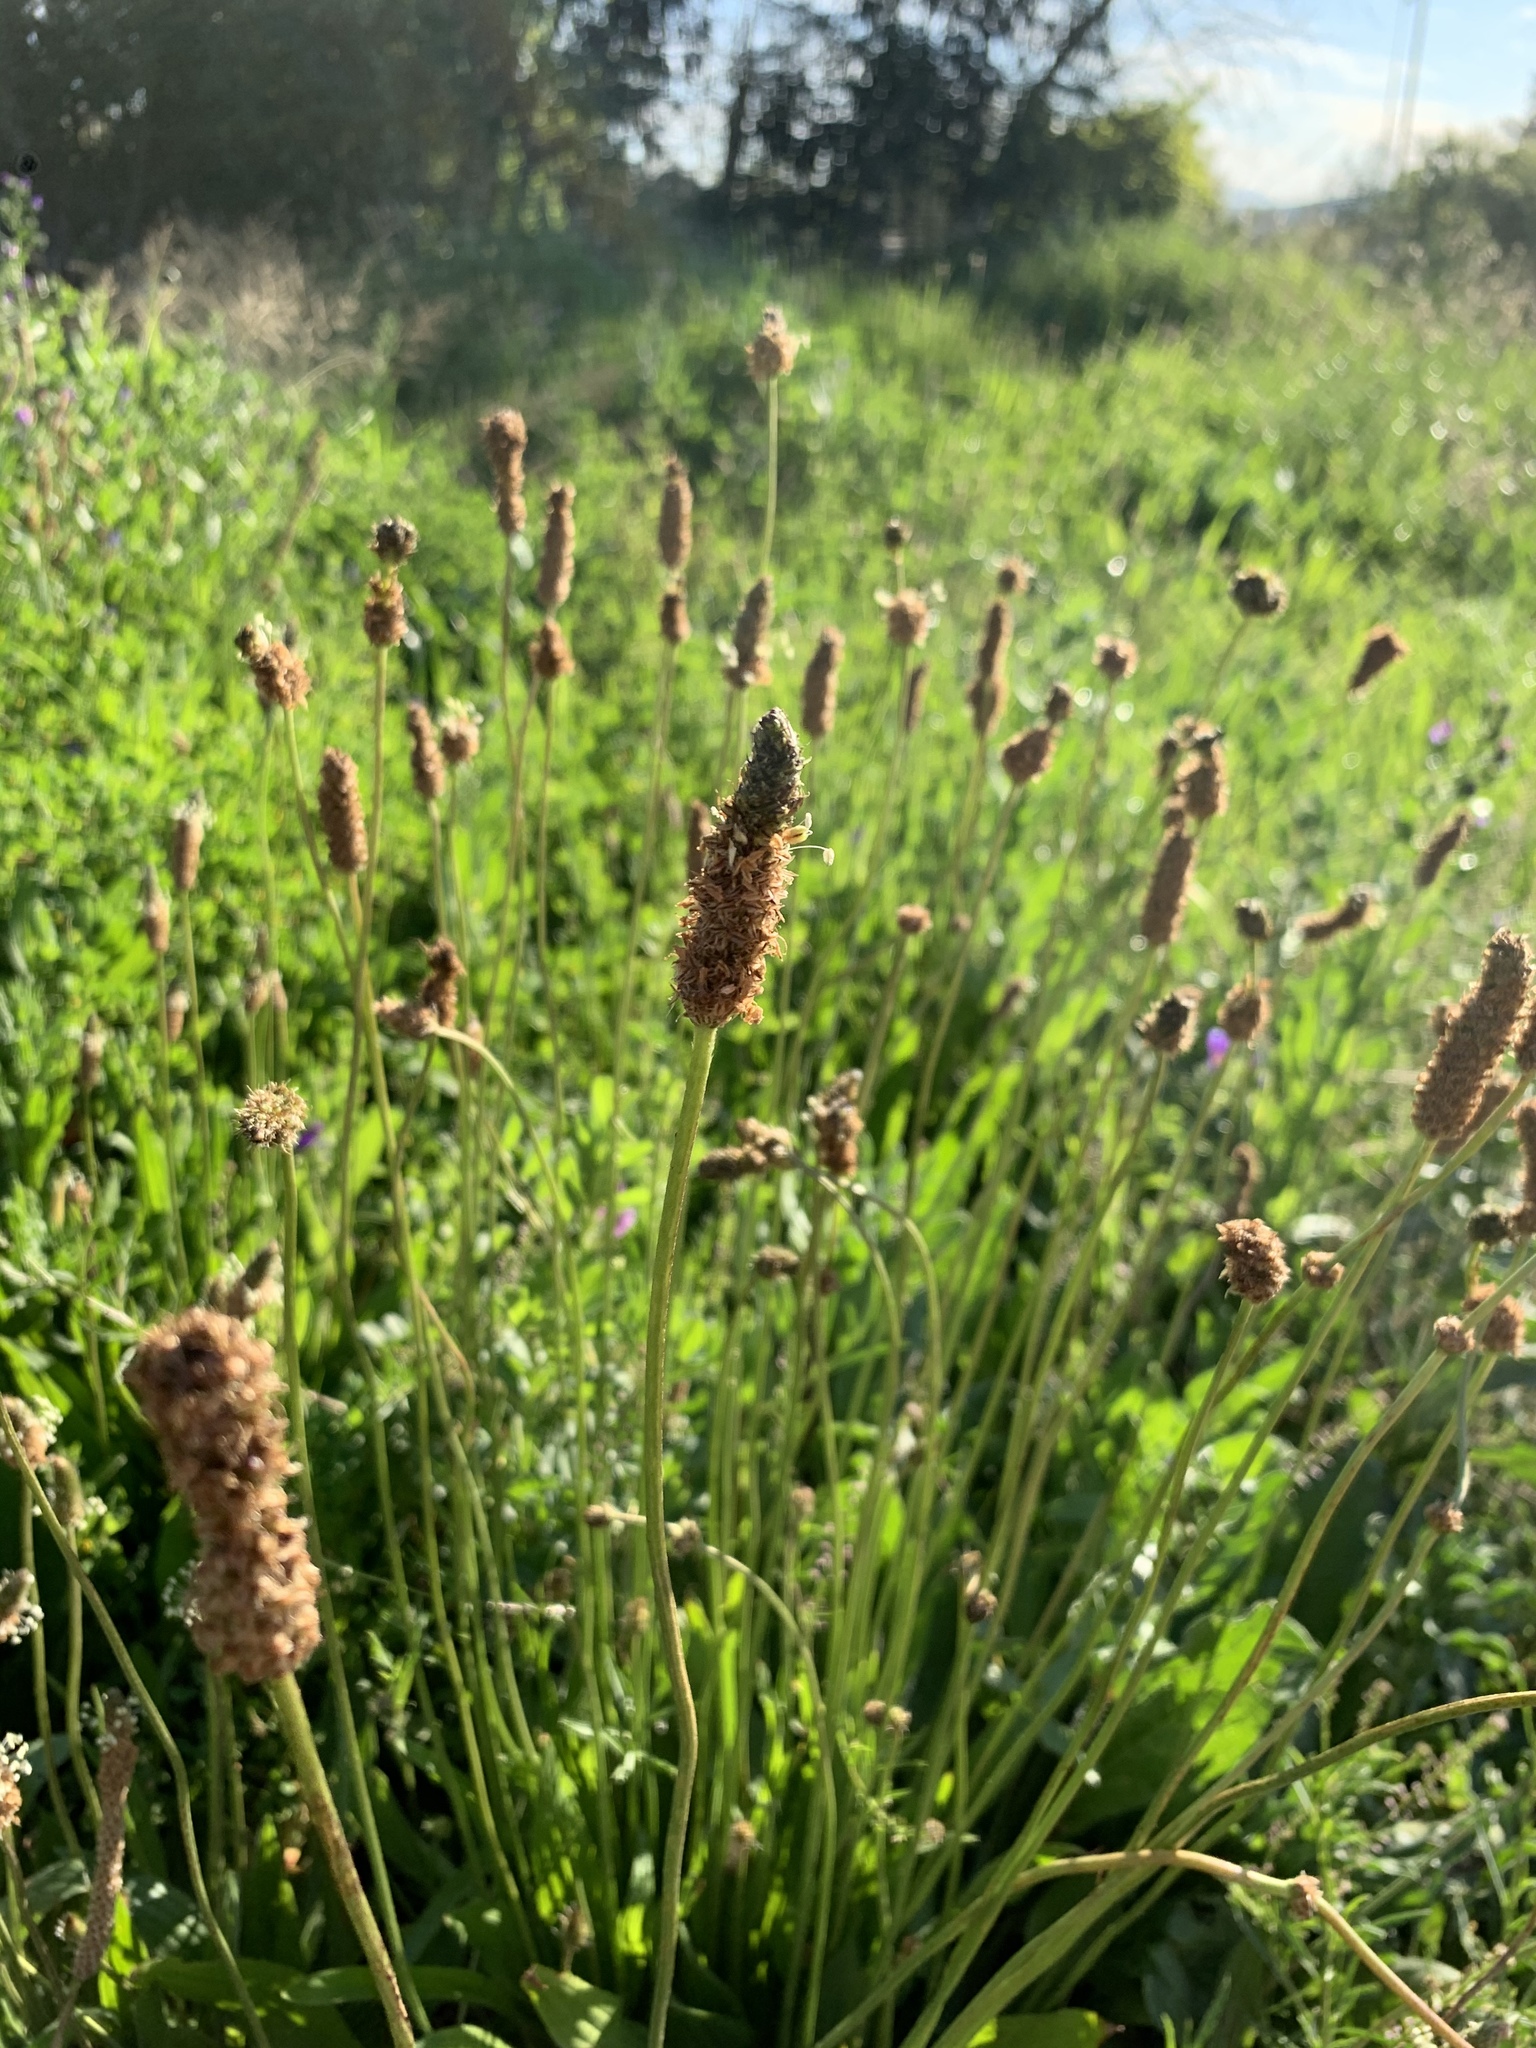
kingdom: Plantae
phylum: Tracheophyta
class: Magnoliopsida
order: Lamiales
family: Plantaginaceae
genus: Plantago
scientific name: Plantago lanceolata
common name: Ribwort plantain
